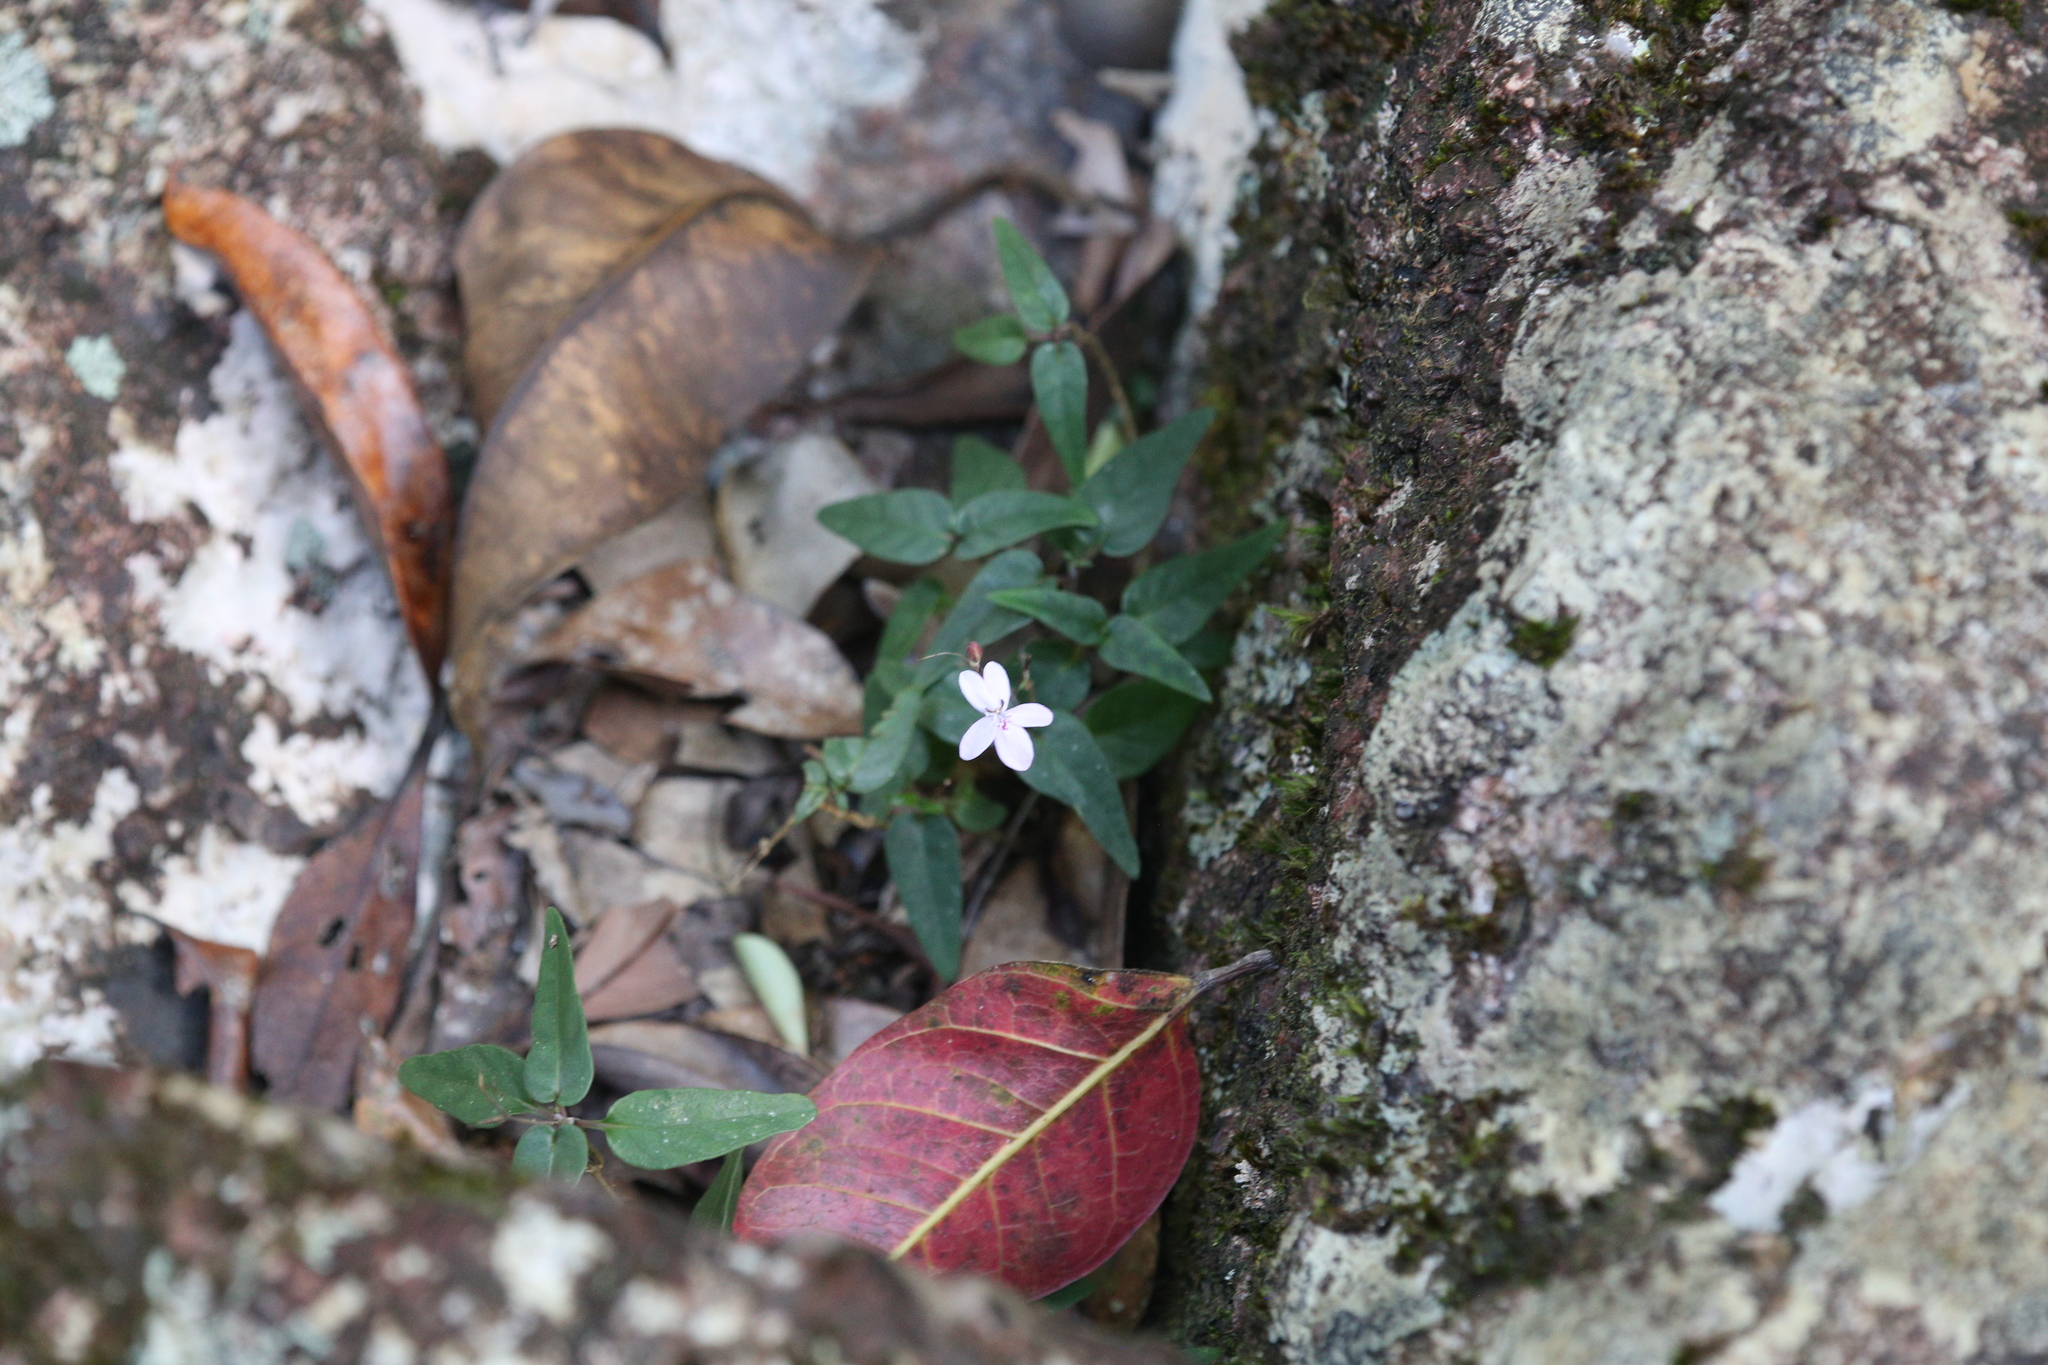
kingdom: Plantae
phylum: Tracheophyta
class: Magnoliopsida
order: Lamiales
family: Acanthaceae
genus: Pseuderanthemum
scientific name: Pseuderanthemum variabile
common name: Night and afternoon
